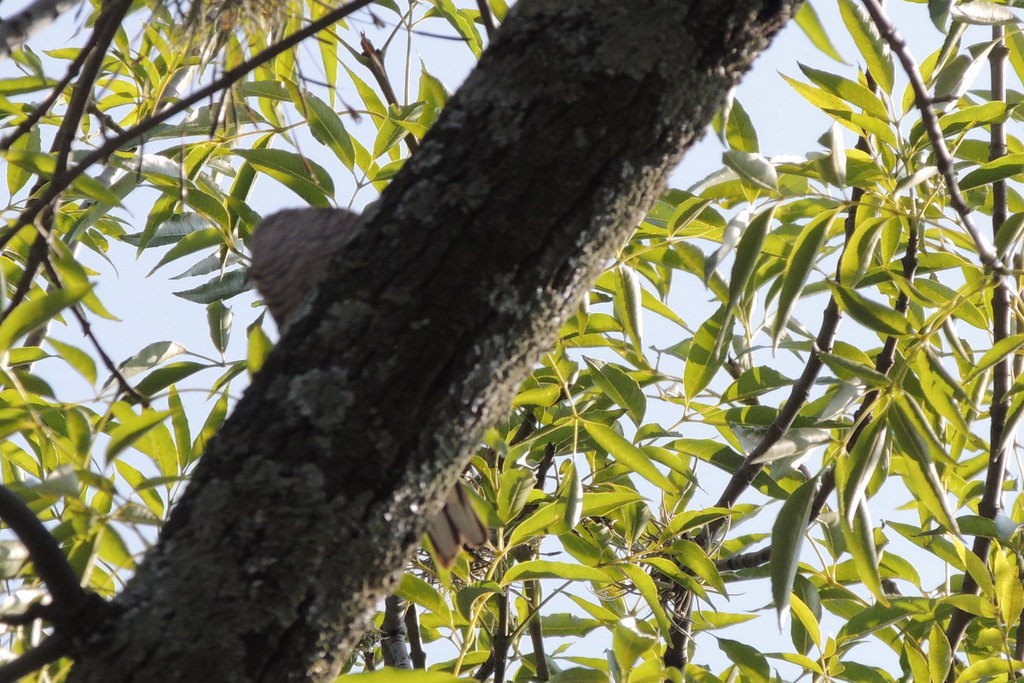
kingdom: Animalia
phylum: Chordata
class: Aves
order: Piciformes
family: Picidae
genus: Melanerpes
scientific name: Melanerpes aurifrons
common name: Golden-fronted woodpecker
